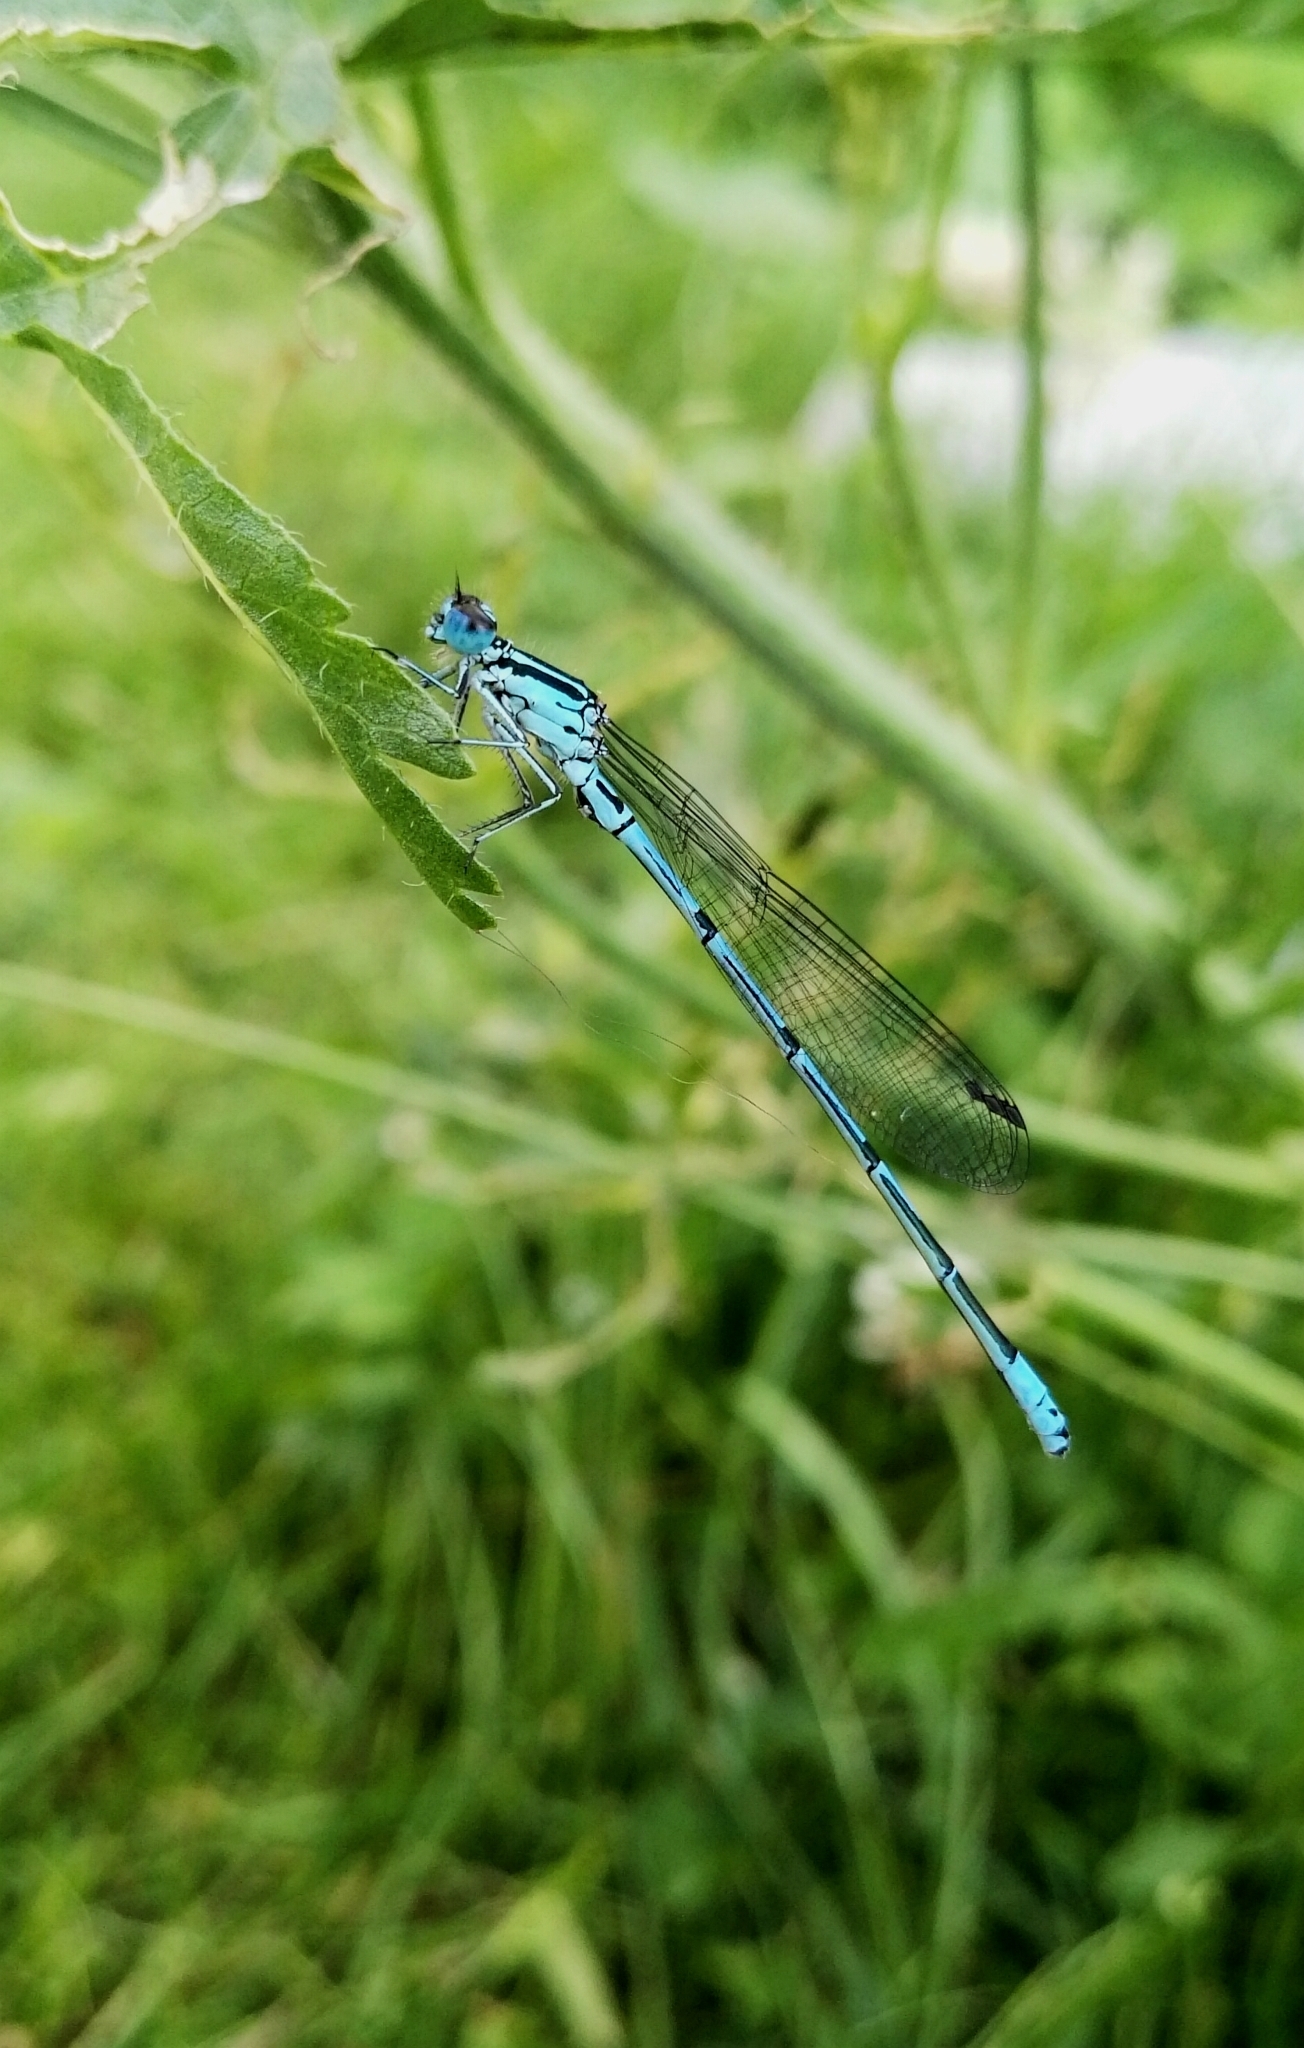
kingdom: Animalia
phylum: Arthropoda
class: Insecta
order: Odonata
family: Coenagrionidae
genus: Coenagrion
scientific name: Coenagrion puella
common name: Azure damselfly
